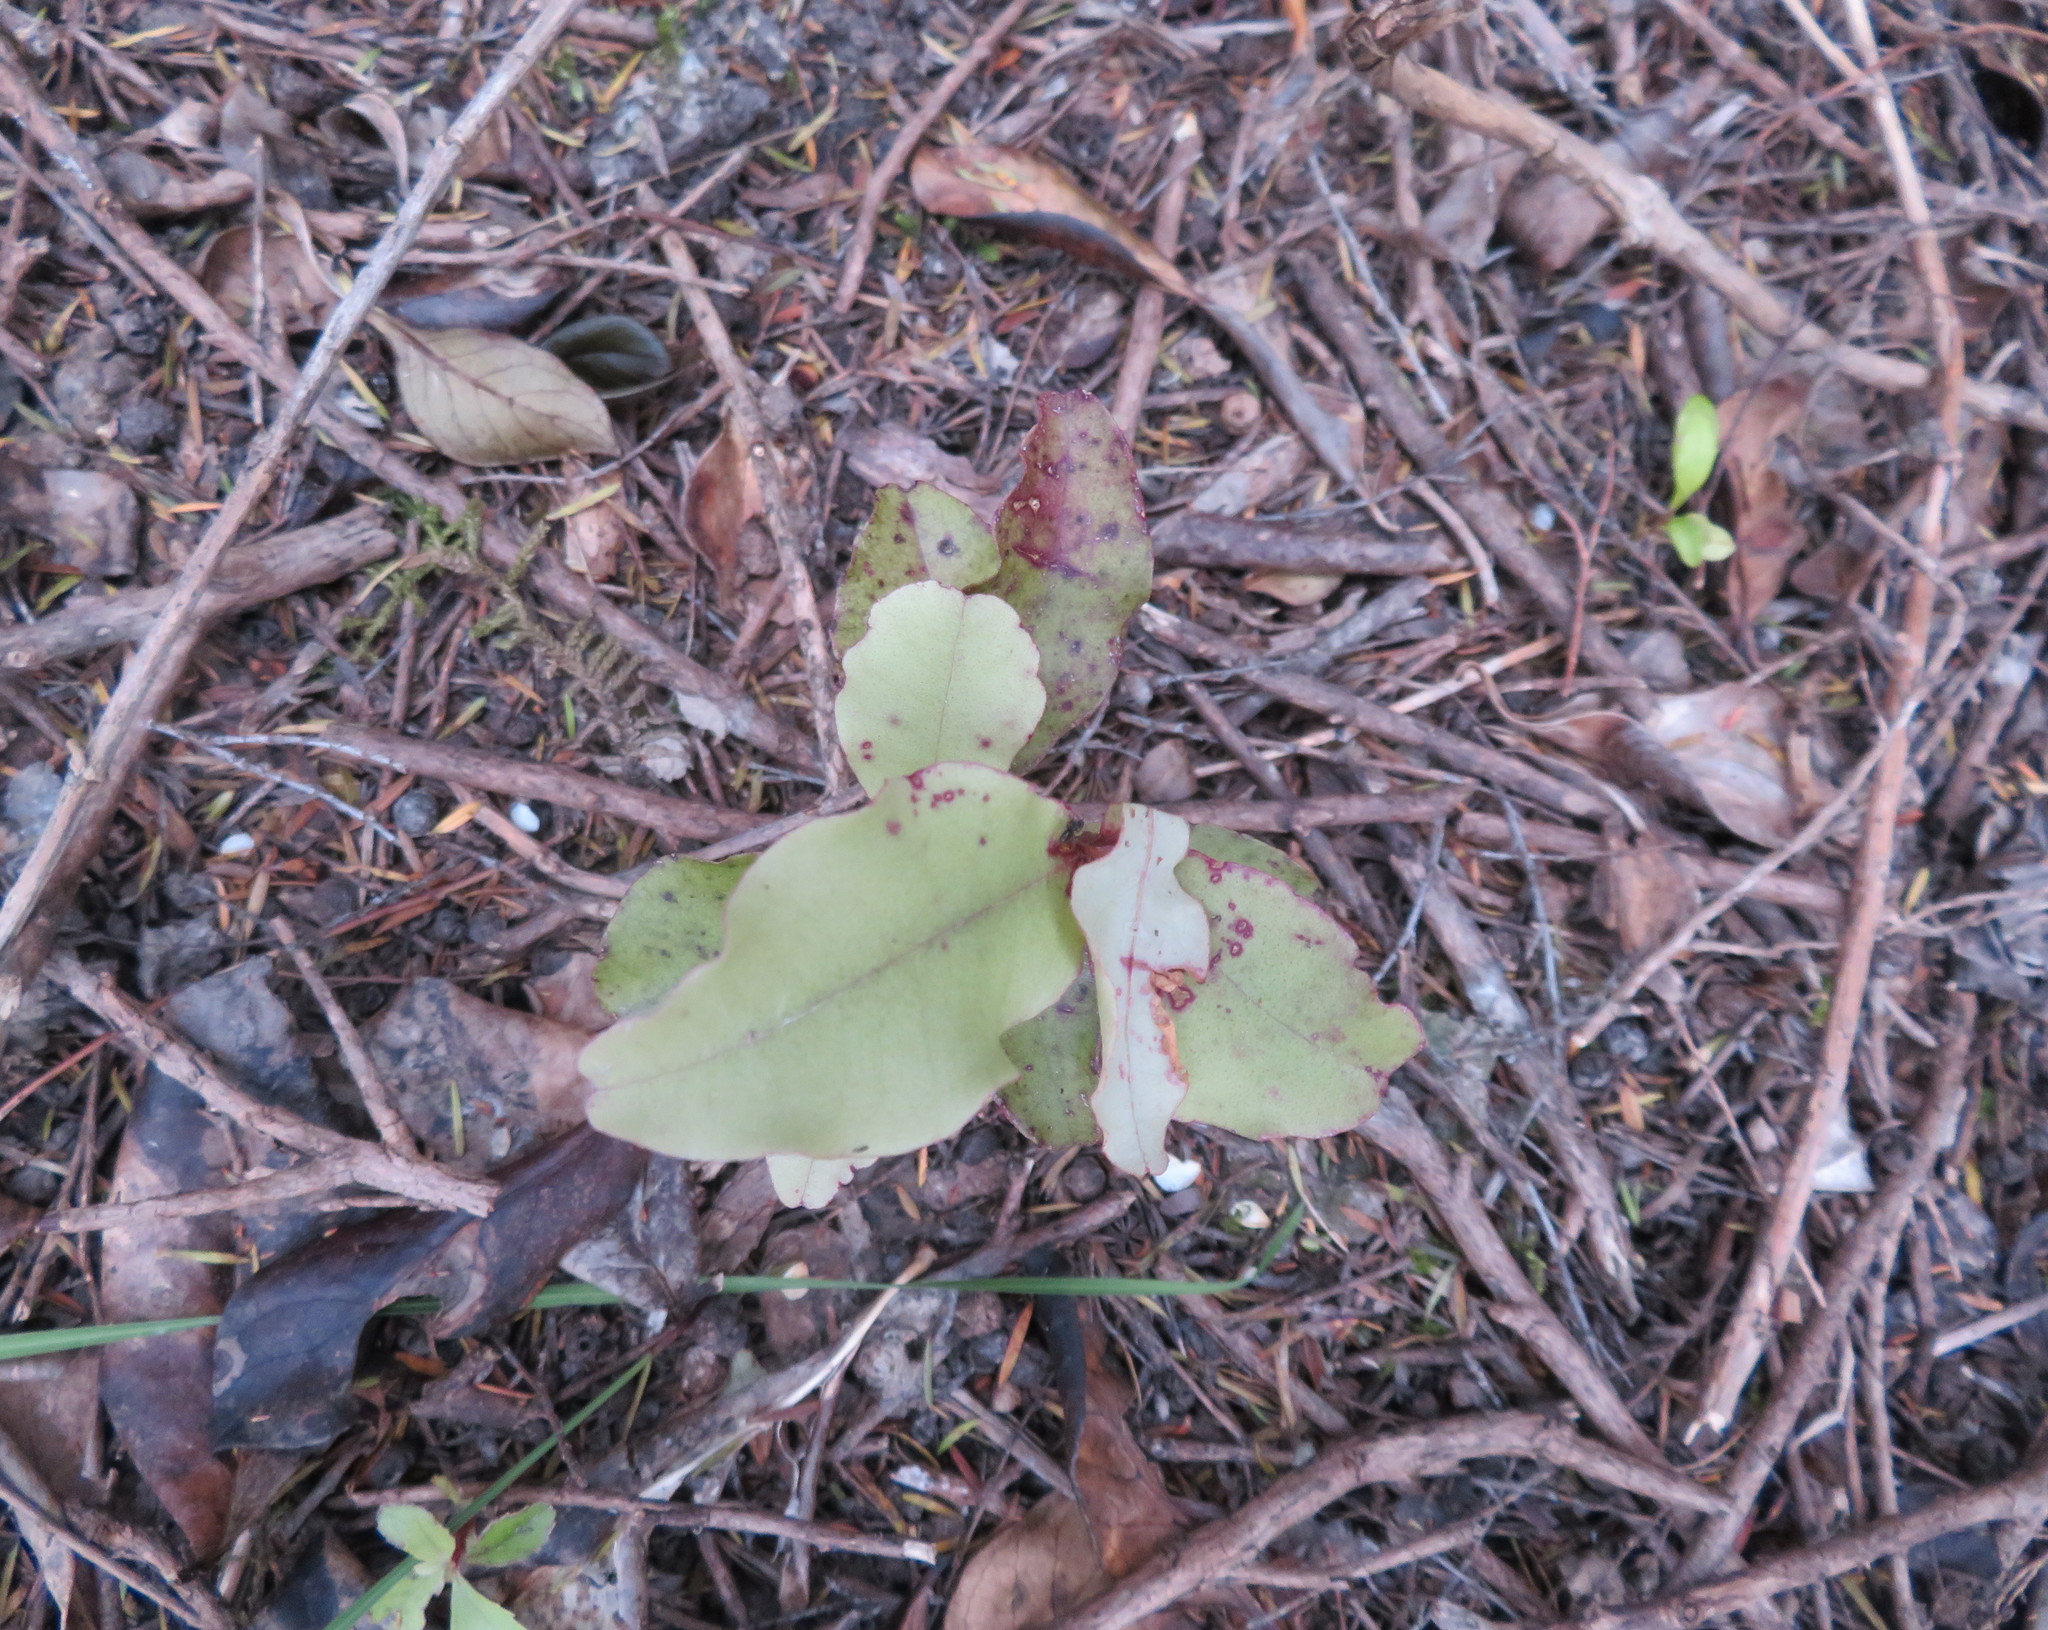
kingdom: Plantae
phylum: Tracheophyta
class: Magnoliopsida
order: Ericales
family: Primulaceae
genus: Myrsine
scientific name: Myrsine australis
